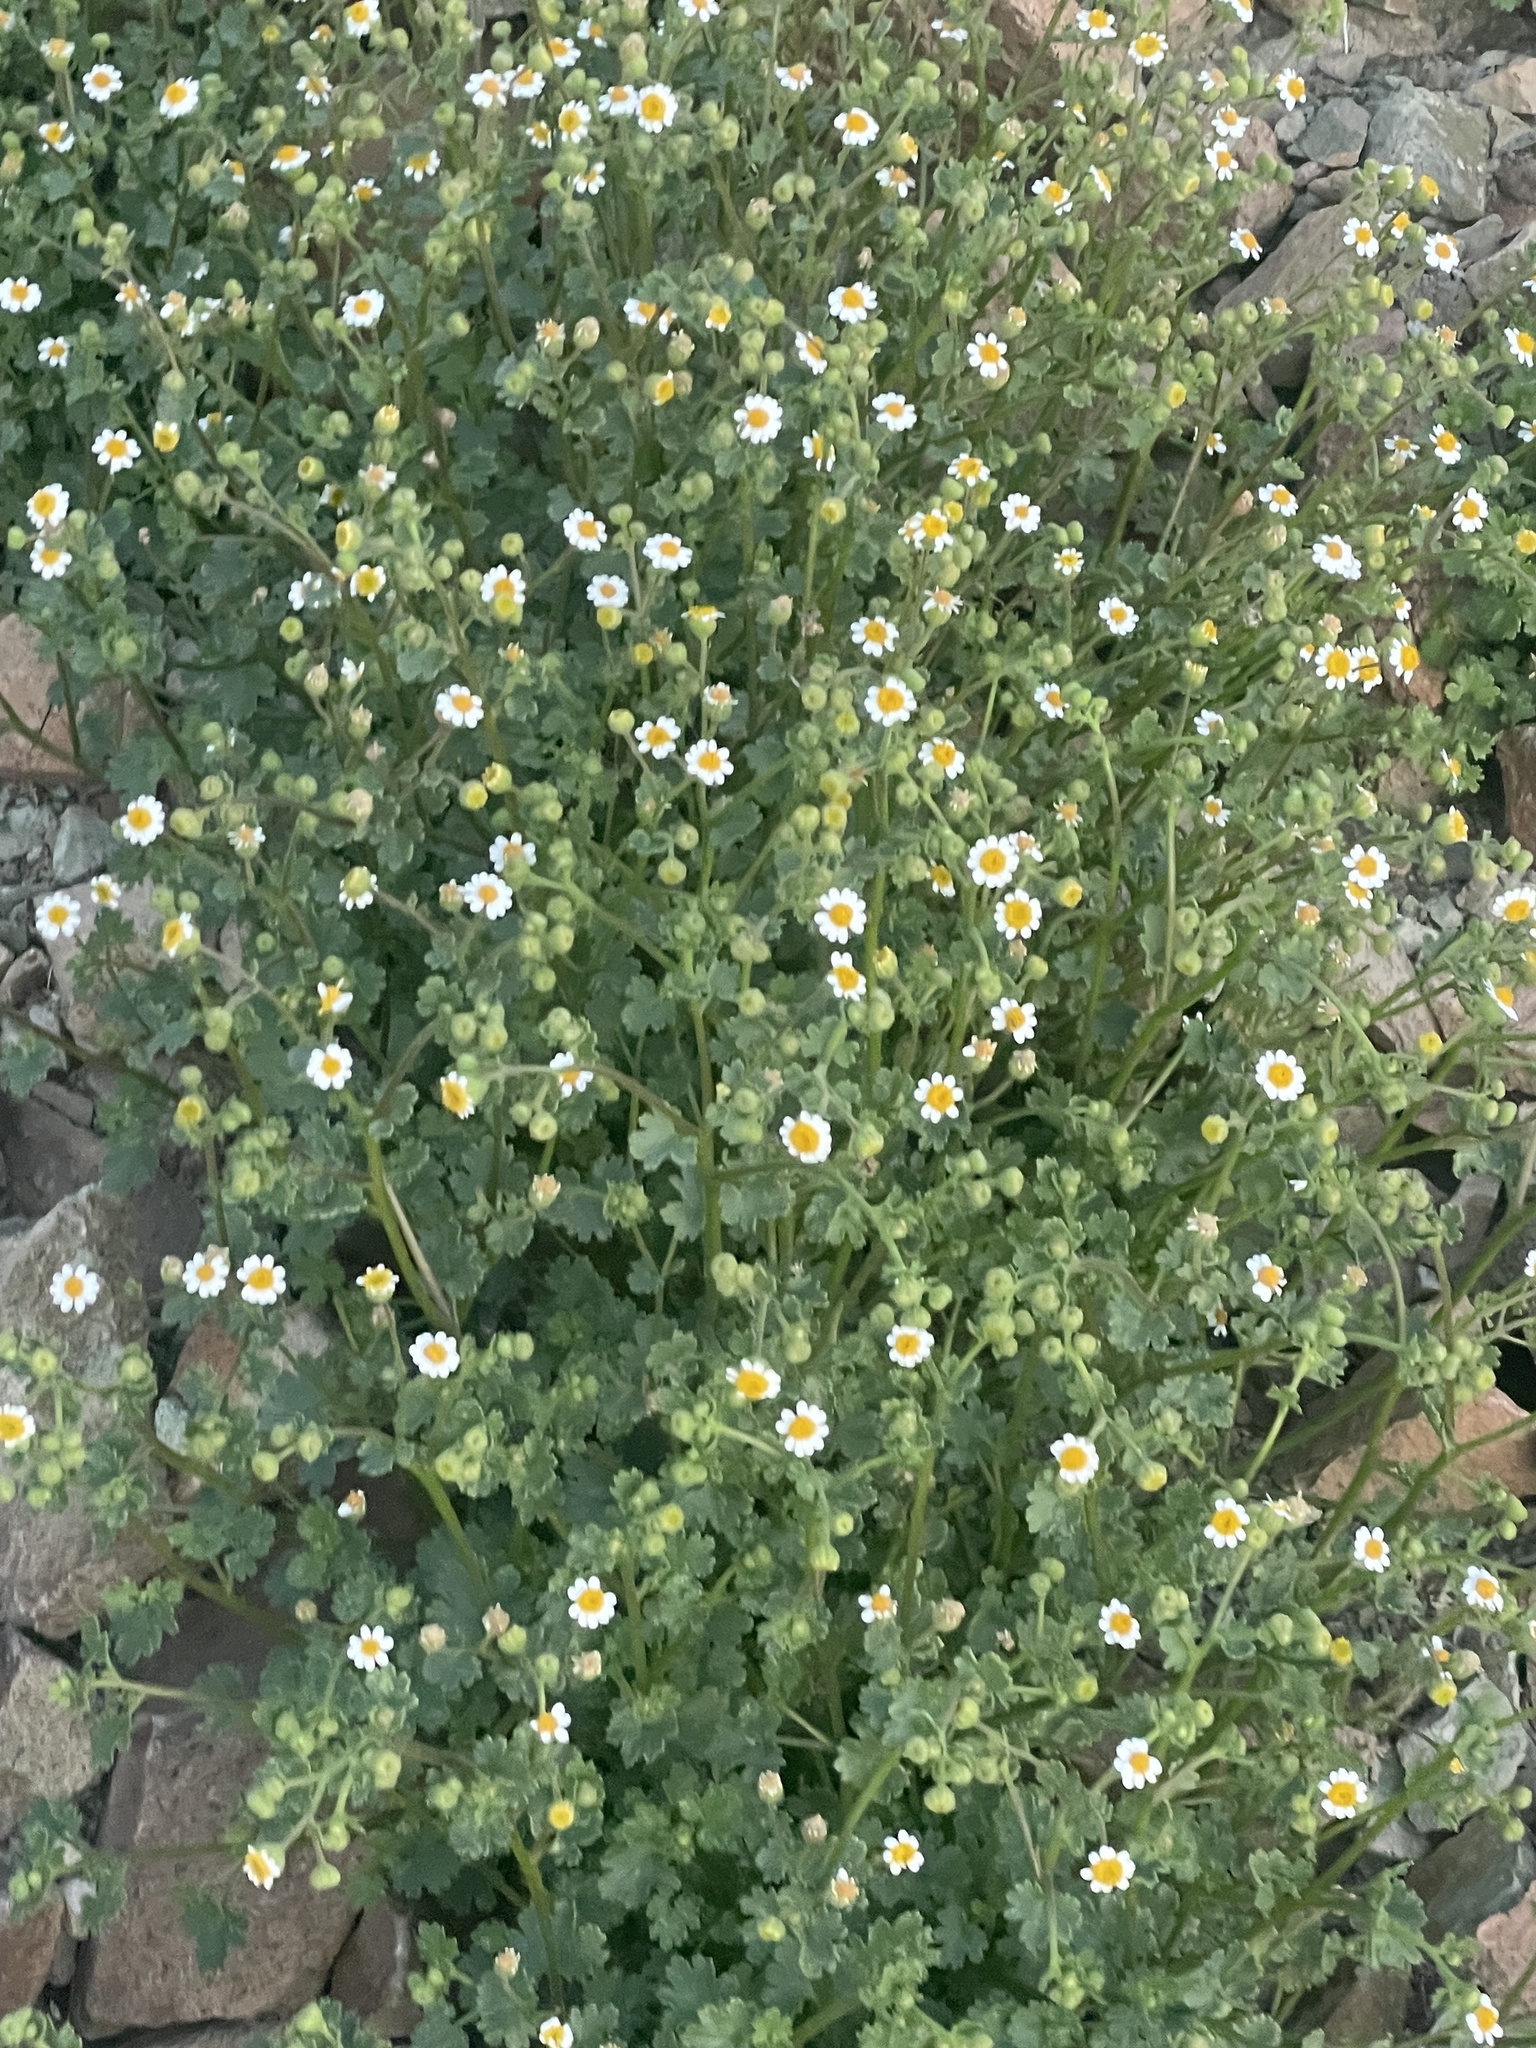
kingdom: Plantae
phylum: Tracheophyta
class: Magnoliopsida
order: Asterales
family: Asteraceae
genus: Laphamia
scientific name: Laphamia emoryi
